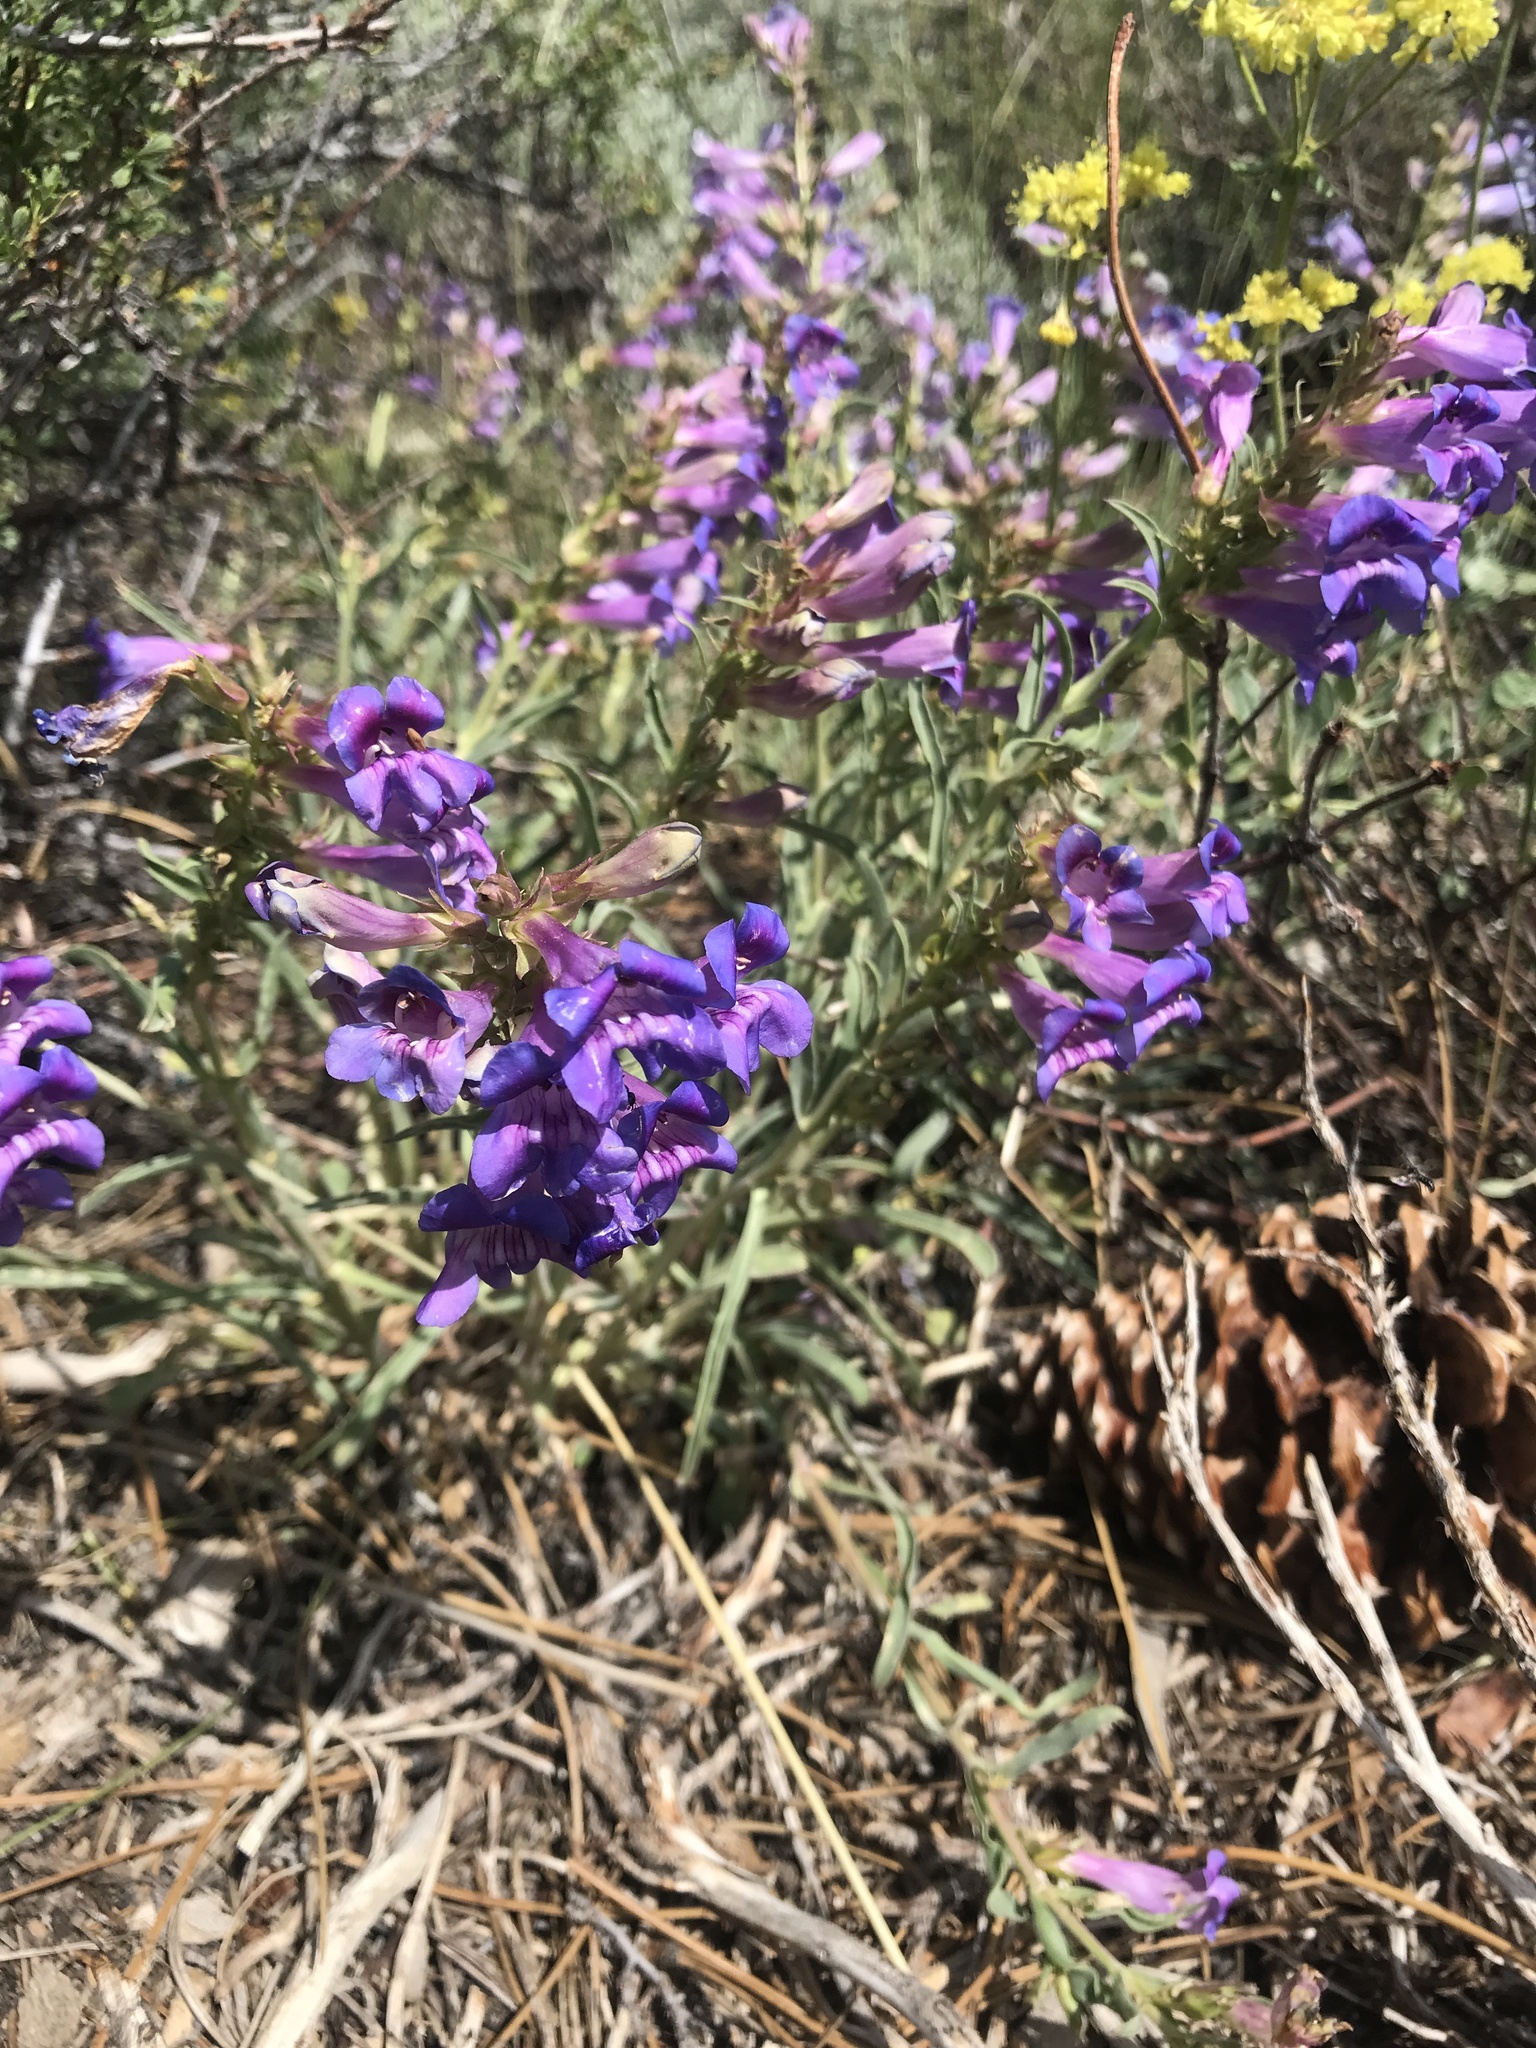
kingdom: Plantae
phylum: Tracheophyta
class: Magnoliopsida
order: Lamiales
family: Plantaginaceae
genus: Penstemon
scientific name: Penstemon speciosus
